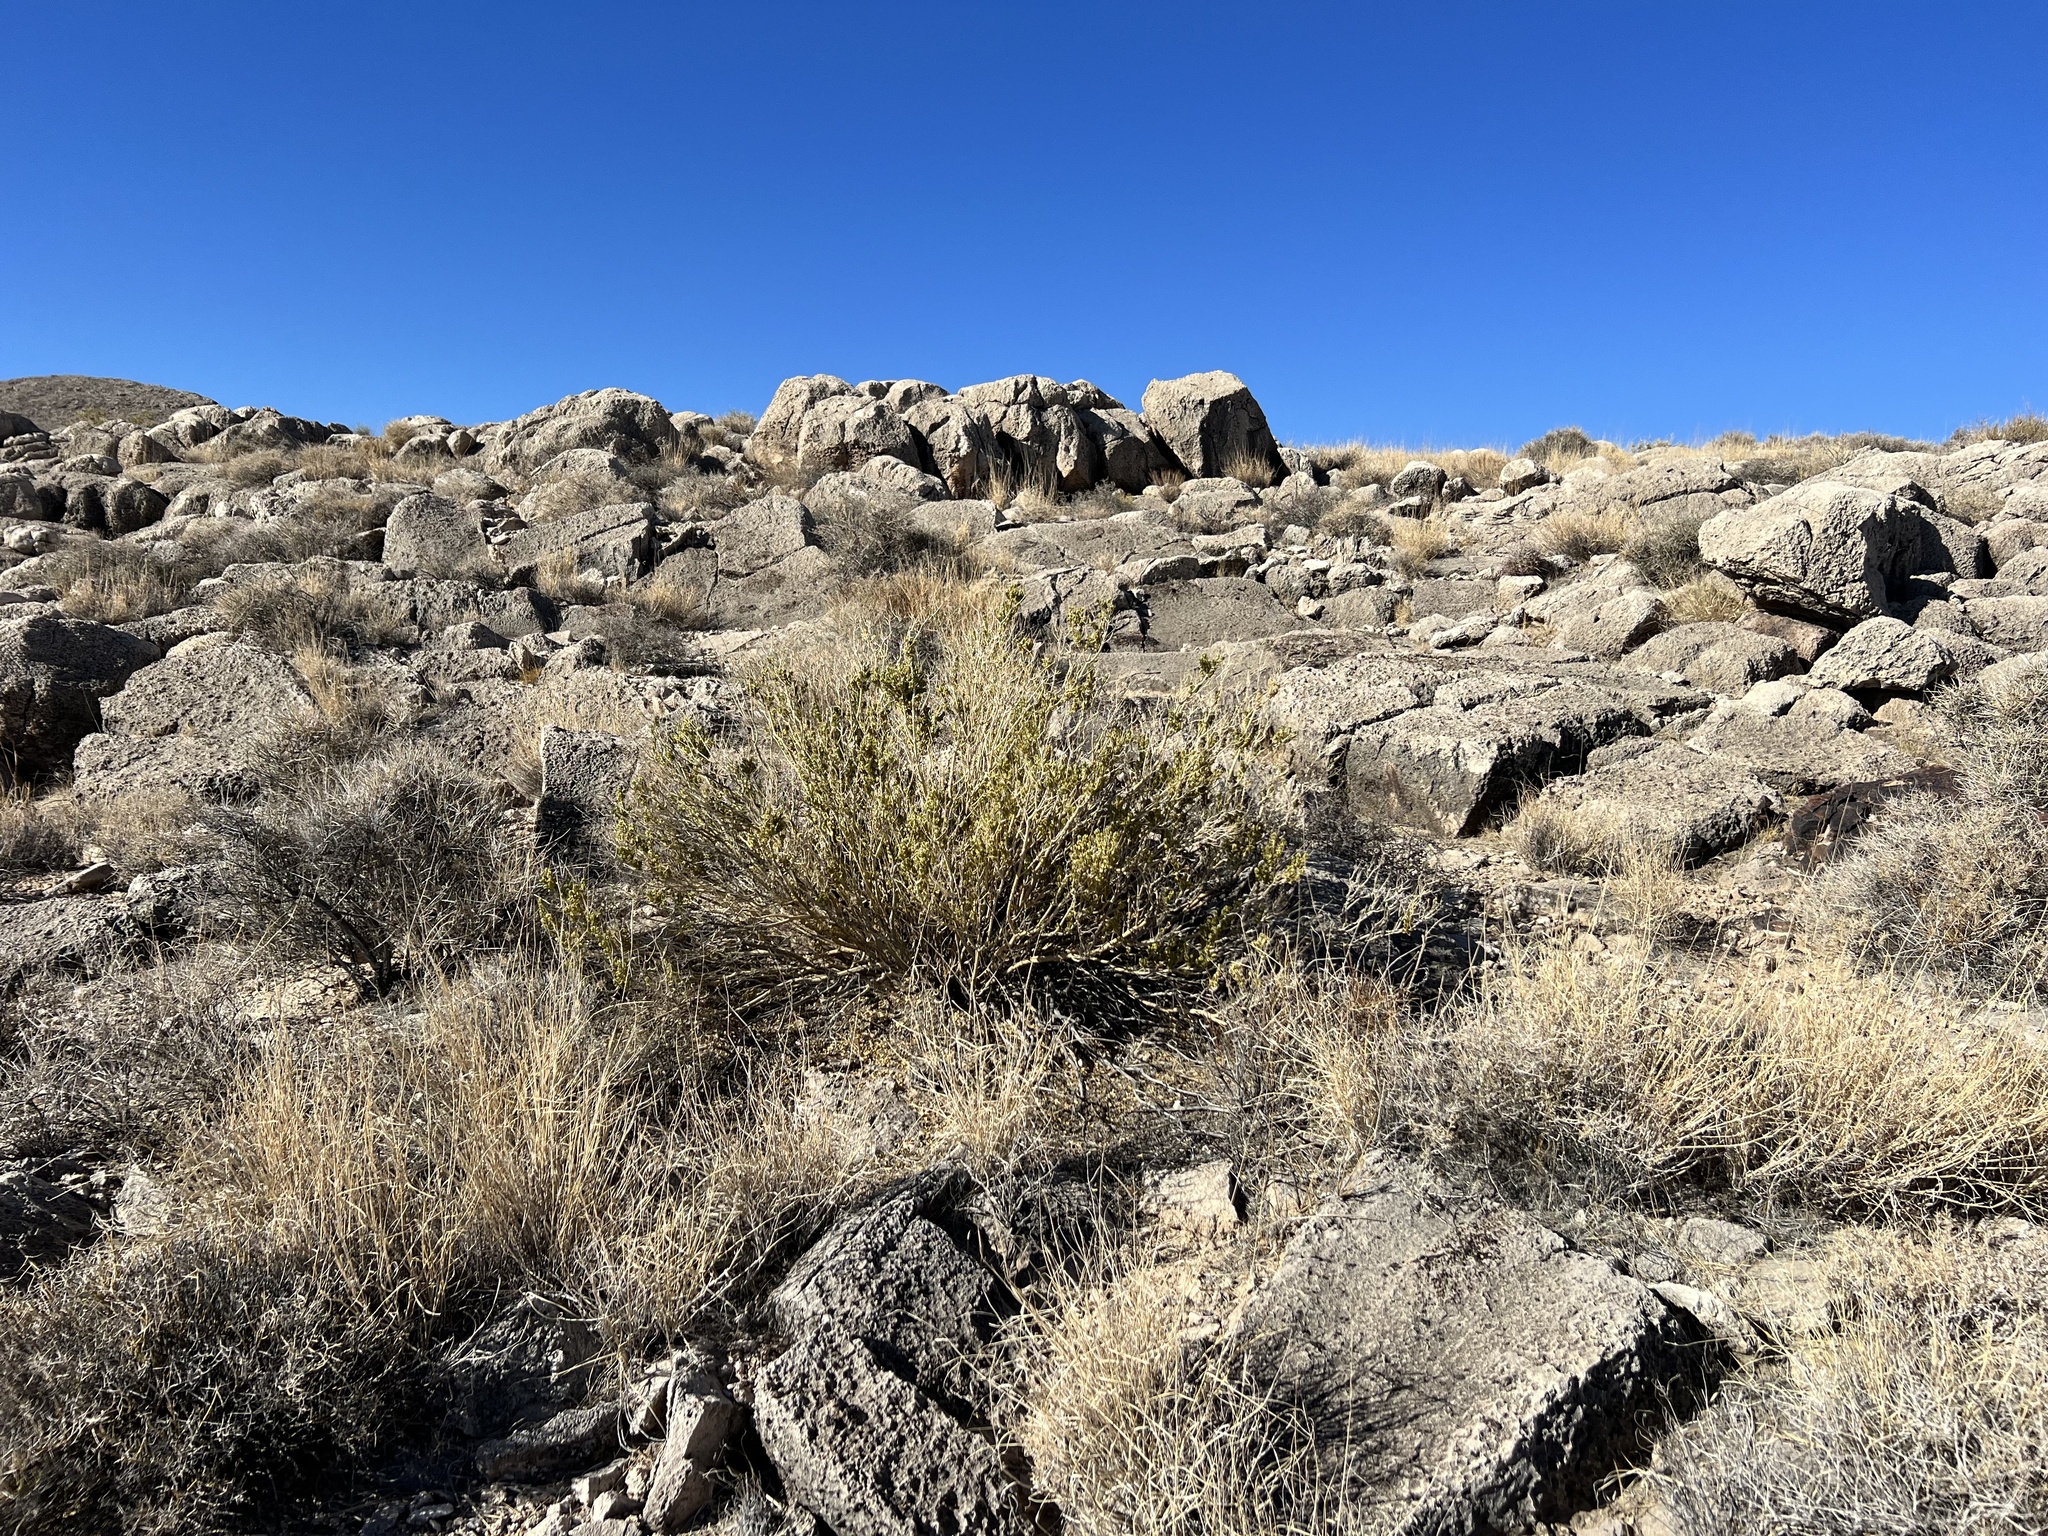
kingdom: Plantae
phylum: Tracheophyta
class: Magnoliopsida
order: Celastrales
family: Celastraceae
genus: Mortonia
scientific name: Mortonia utahensis
